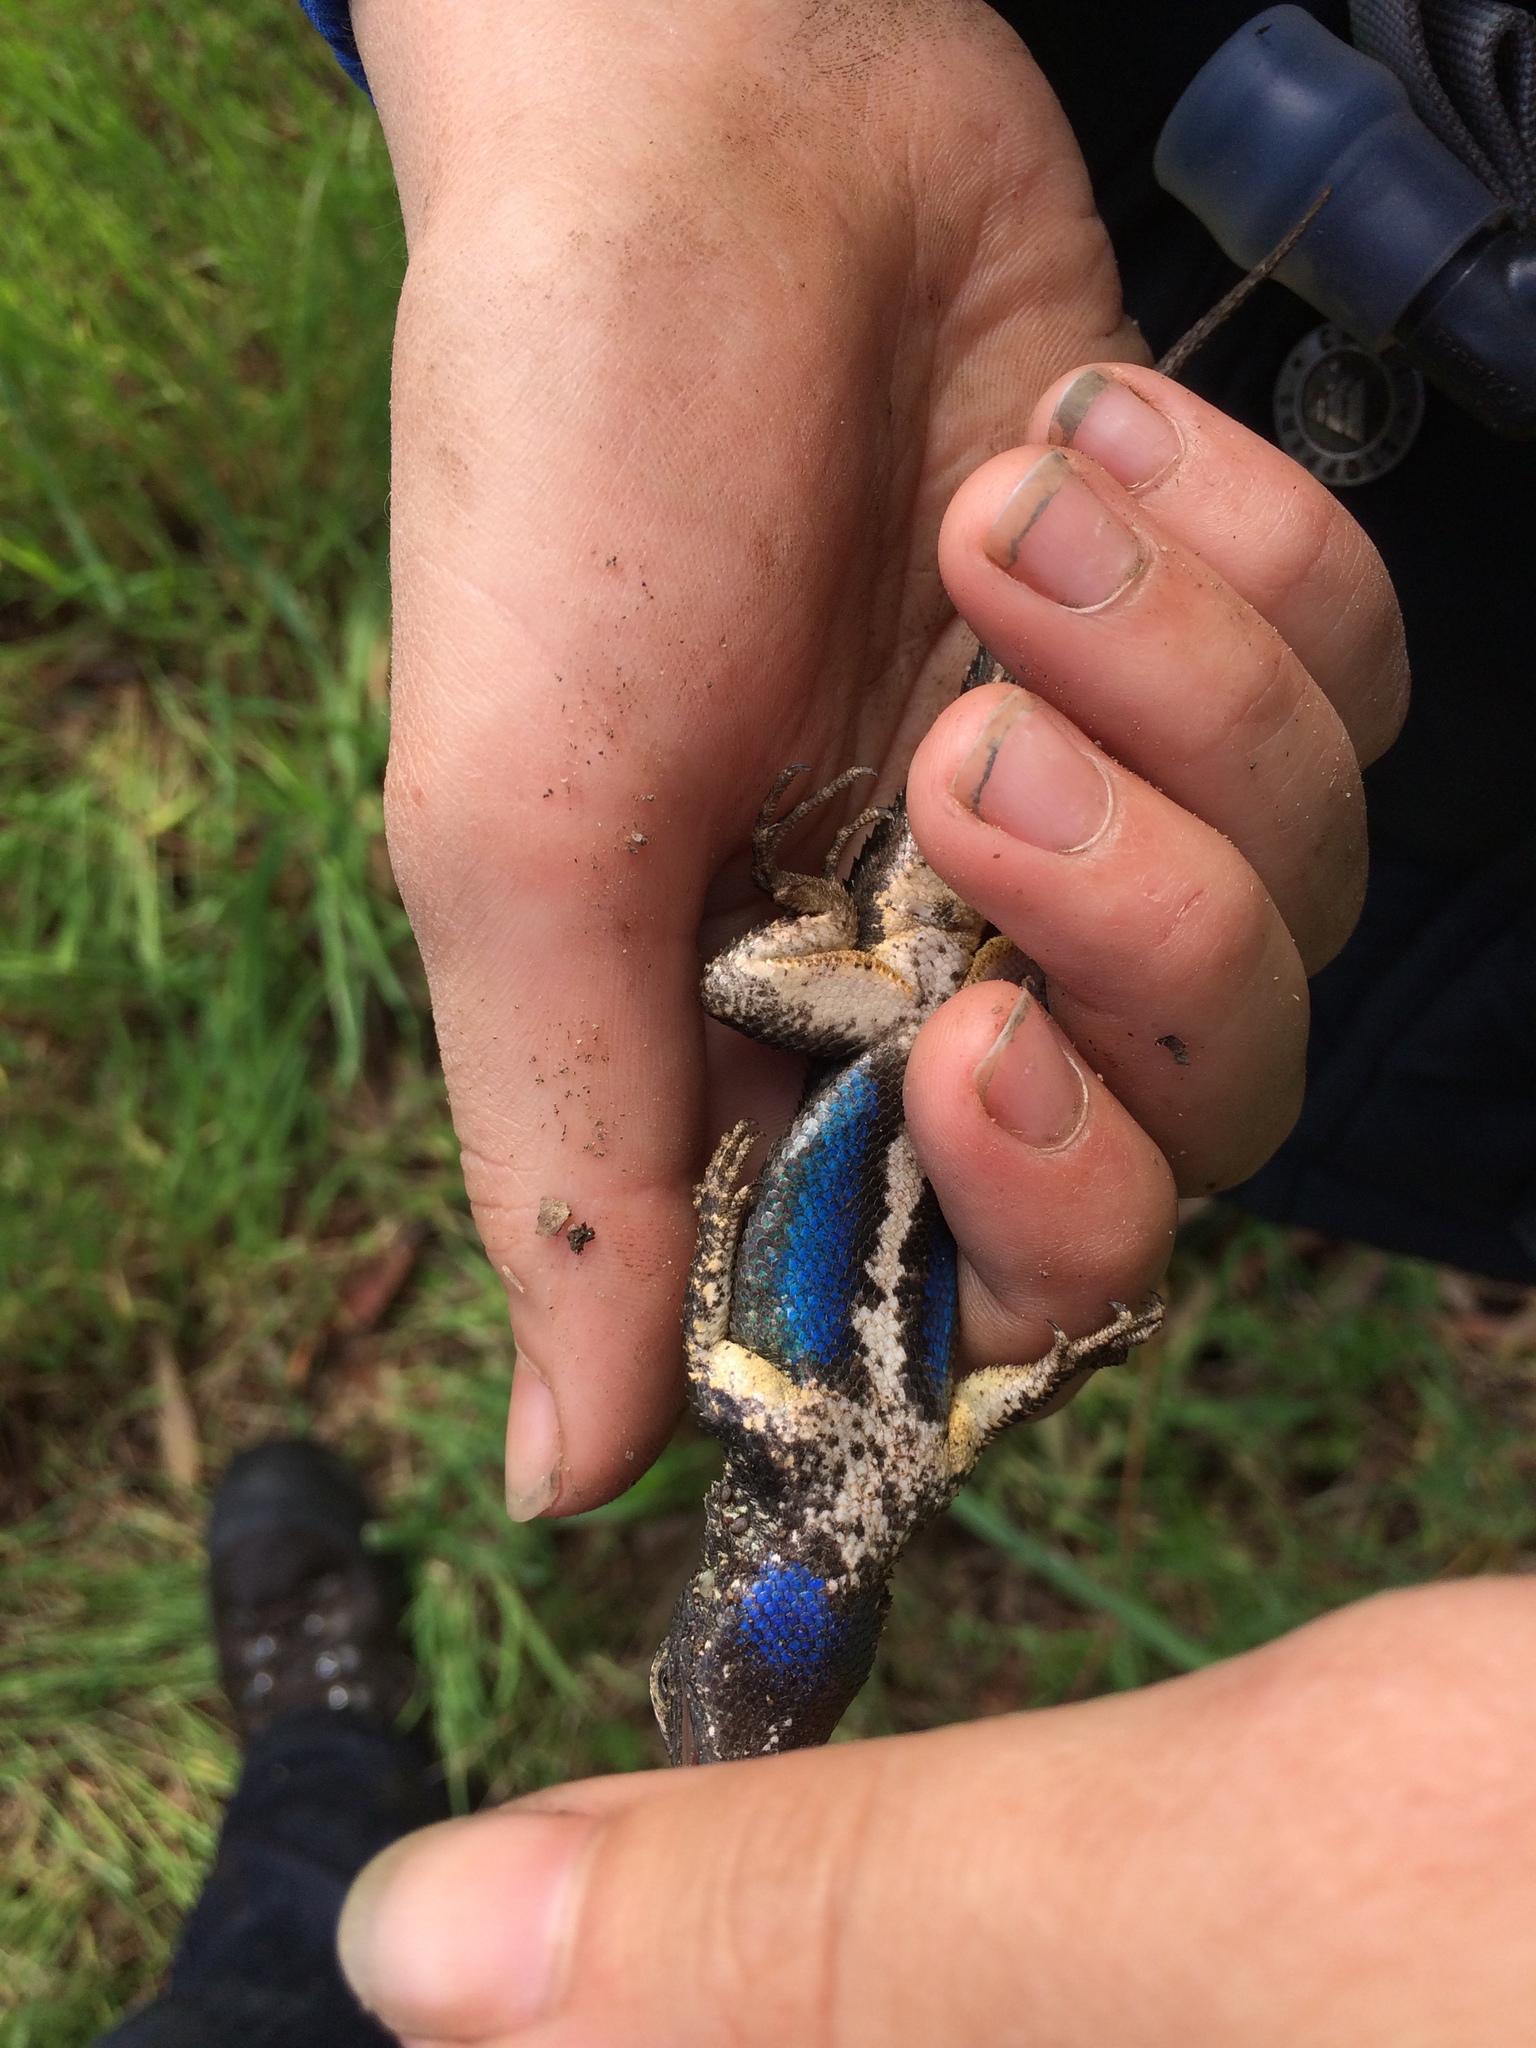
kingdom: Animalia
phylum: Chordata
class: Squamata
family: Phrynosomatidae
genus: Sceloporus
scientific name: Sceloporus occidentalis
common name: Western fence lizard
